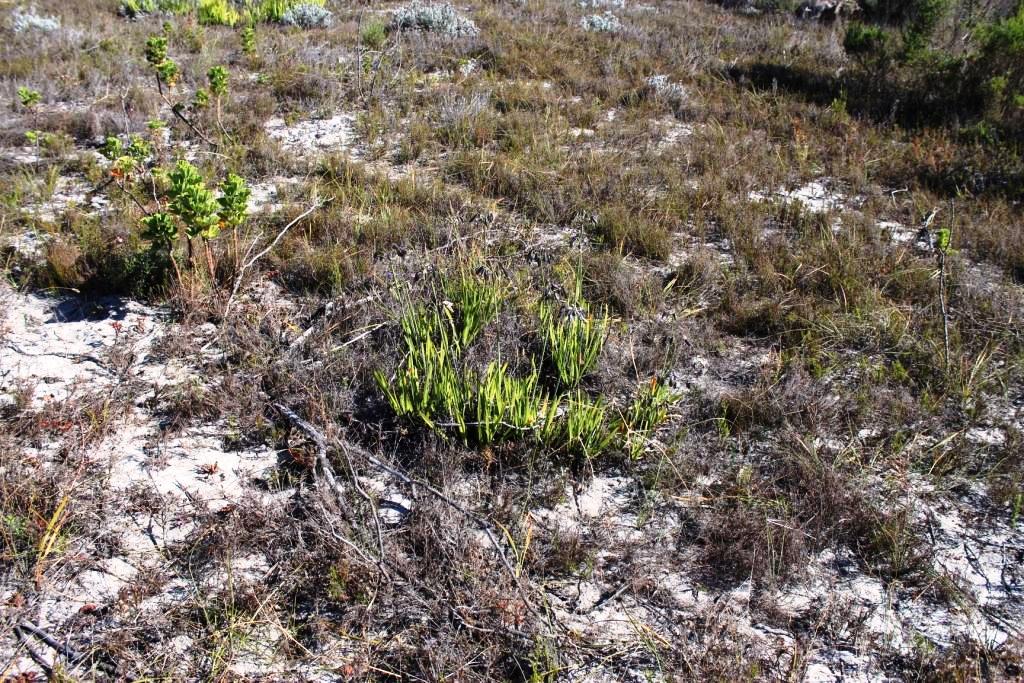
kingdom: Plantae
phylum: Tracheophyta
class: Liliopsida
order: Asparagales
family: Amaryllidaceae
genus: Agapanthus
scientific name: Agapanthus africanus
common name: Lily-of-the-nile
